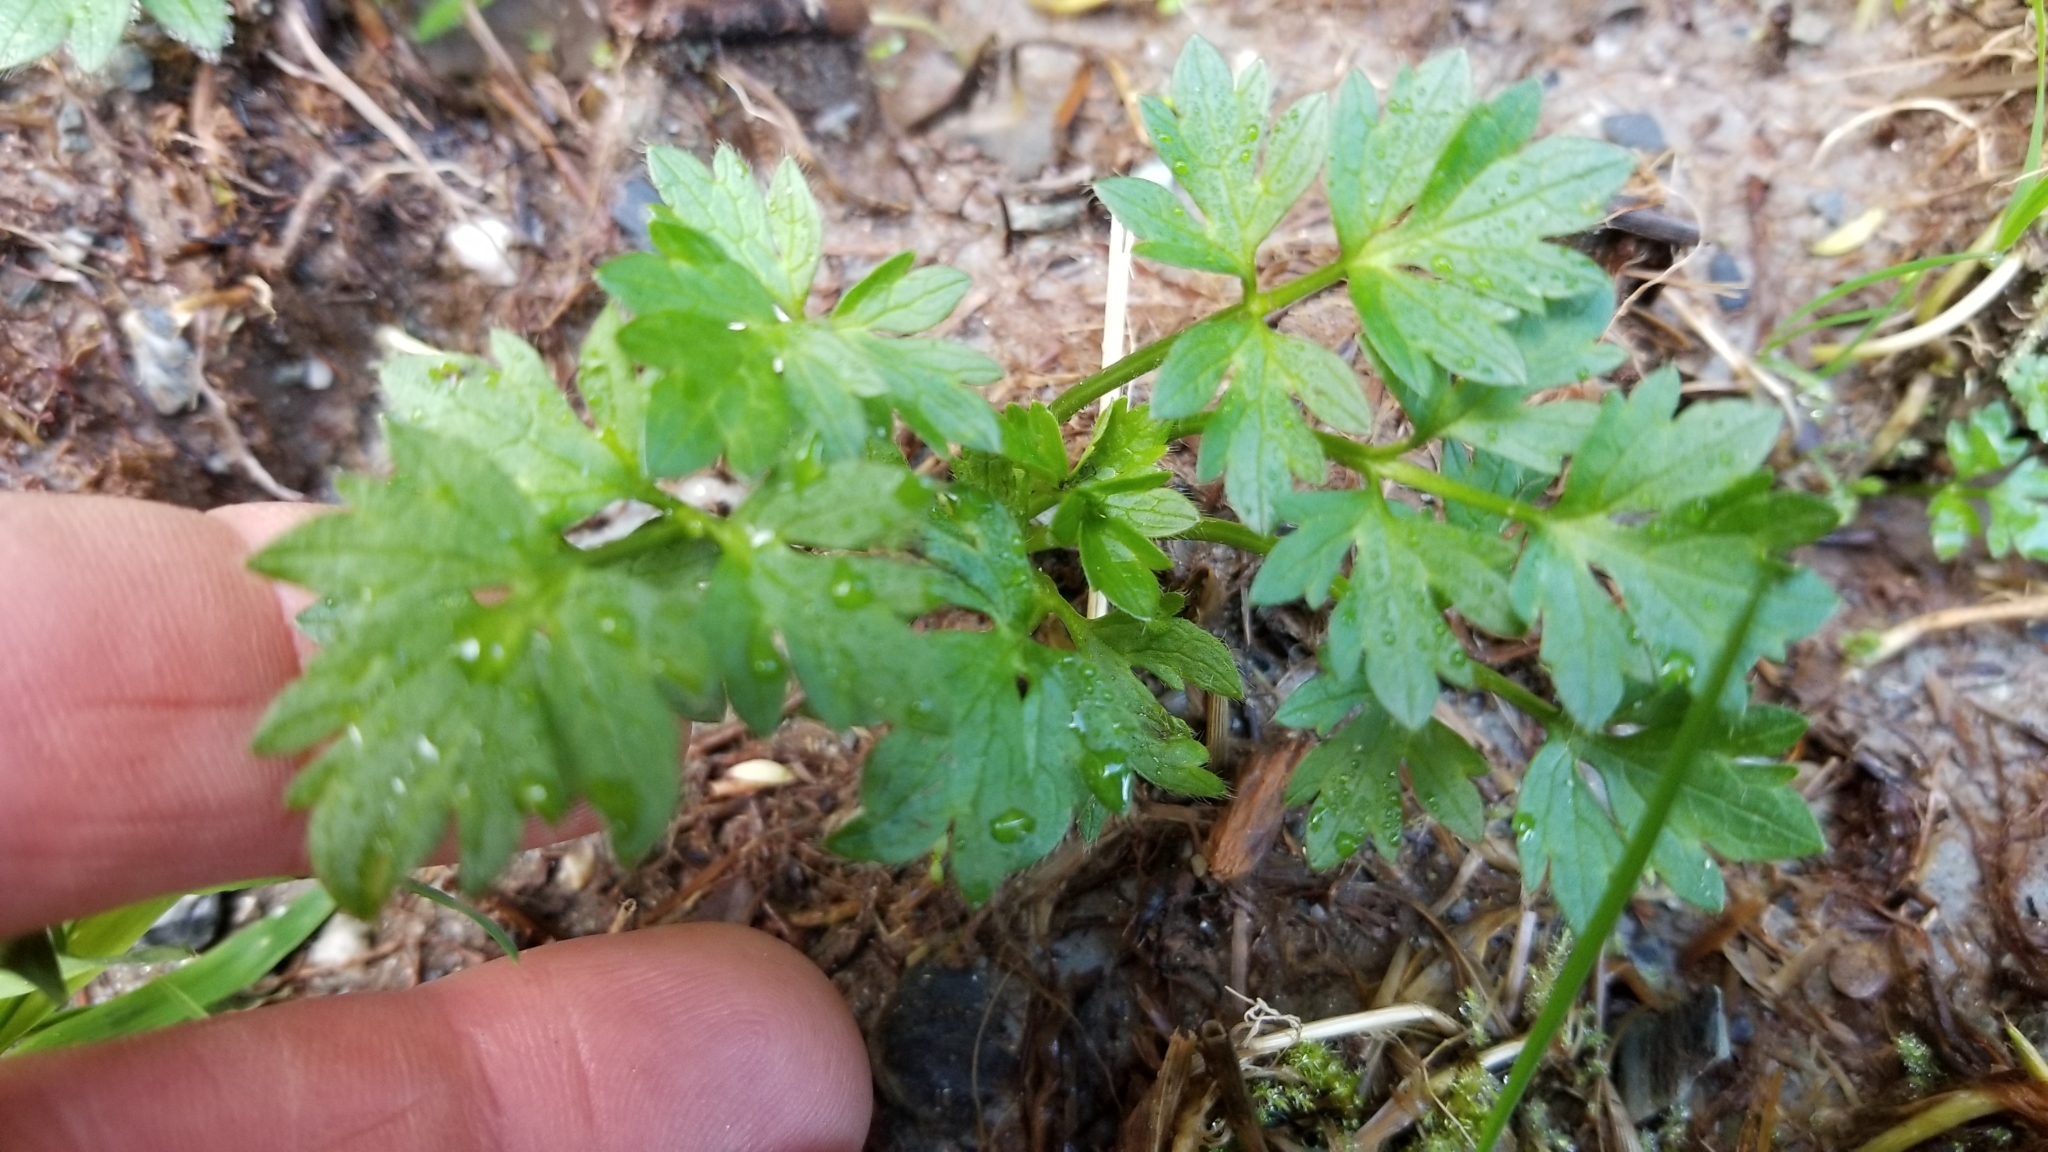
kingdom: Plantae
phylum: Tracheophyta
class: Magnoliopsida
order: Ranunculales
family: Ranunculaceae
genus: Ranunculus
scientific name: Ranunculus repens
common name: Creeping buttercup
